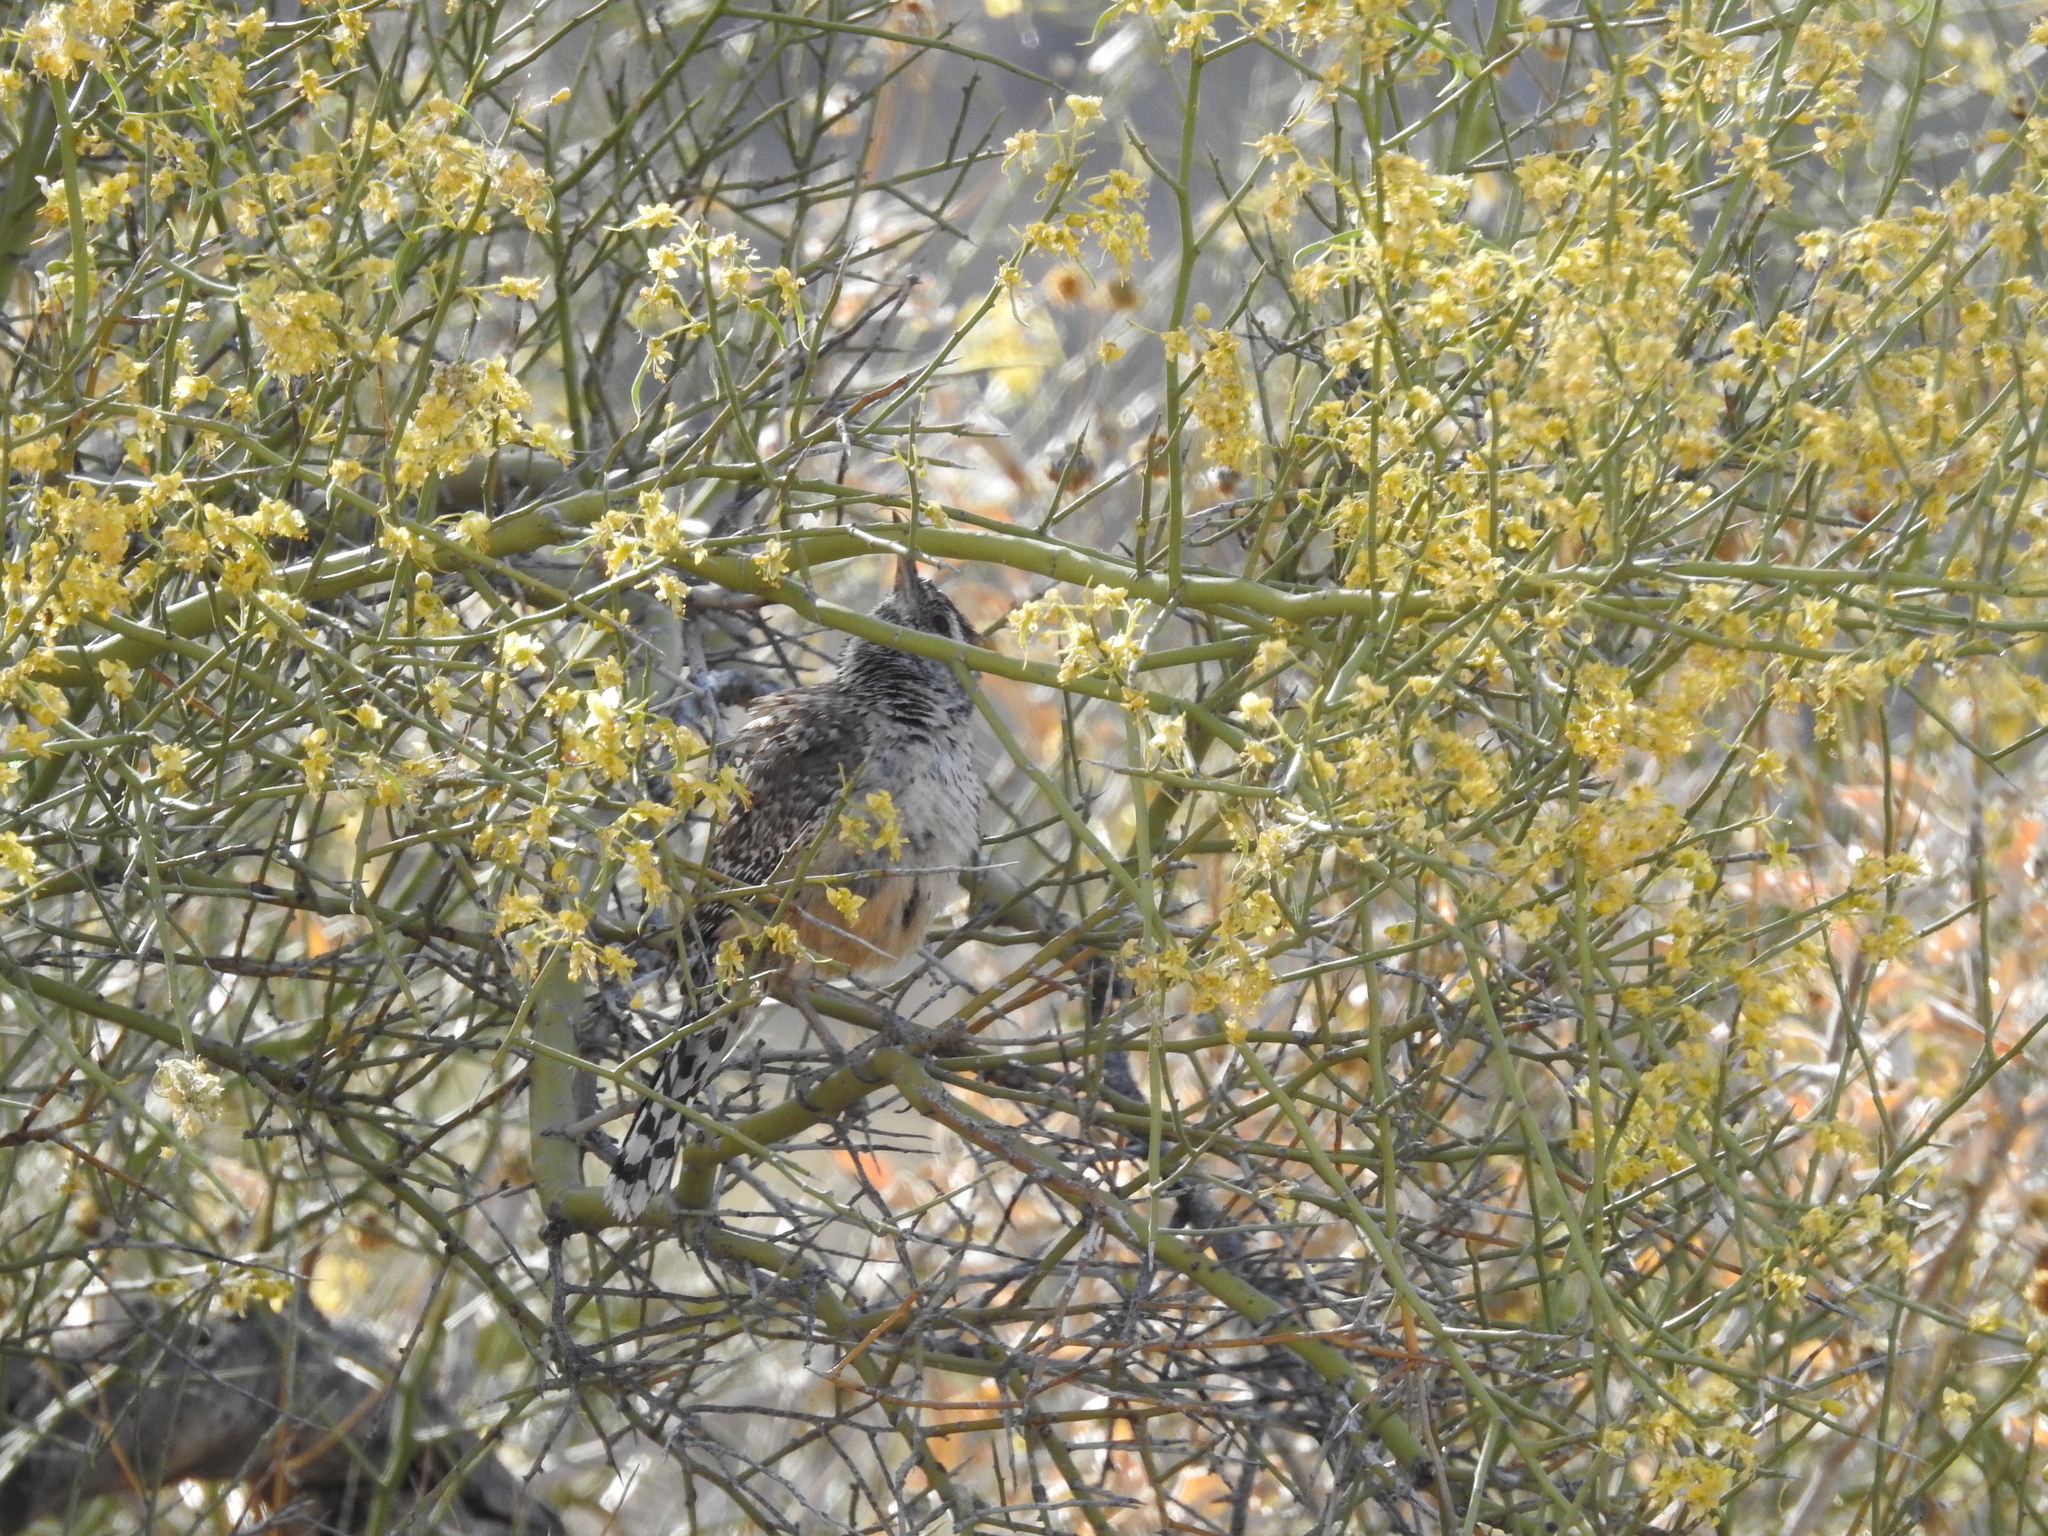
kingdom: Animalia
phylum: Chordata
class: Aves
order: Passeriformes
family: Troglodytidae
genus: Campylorhynchus
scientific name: Campylorhynchus brunneicapillus
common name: Cactus wren
